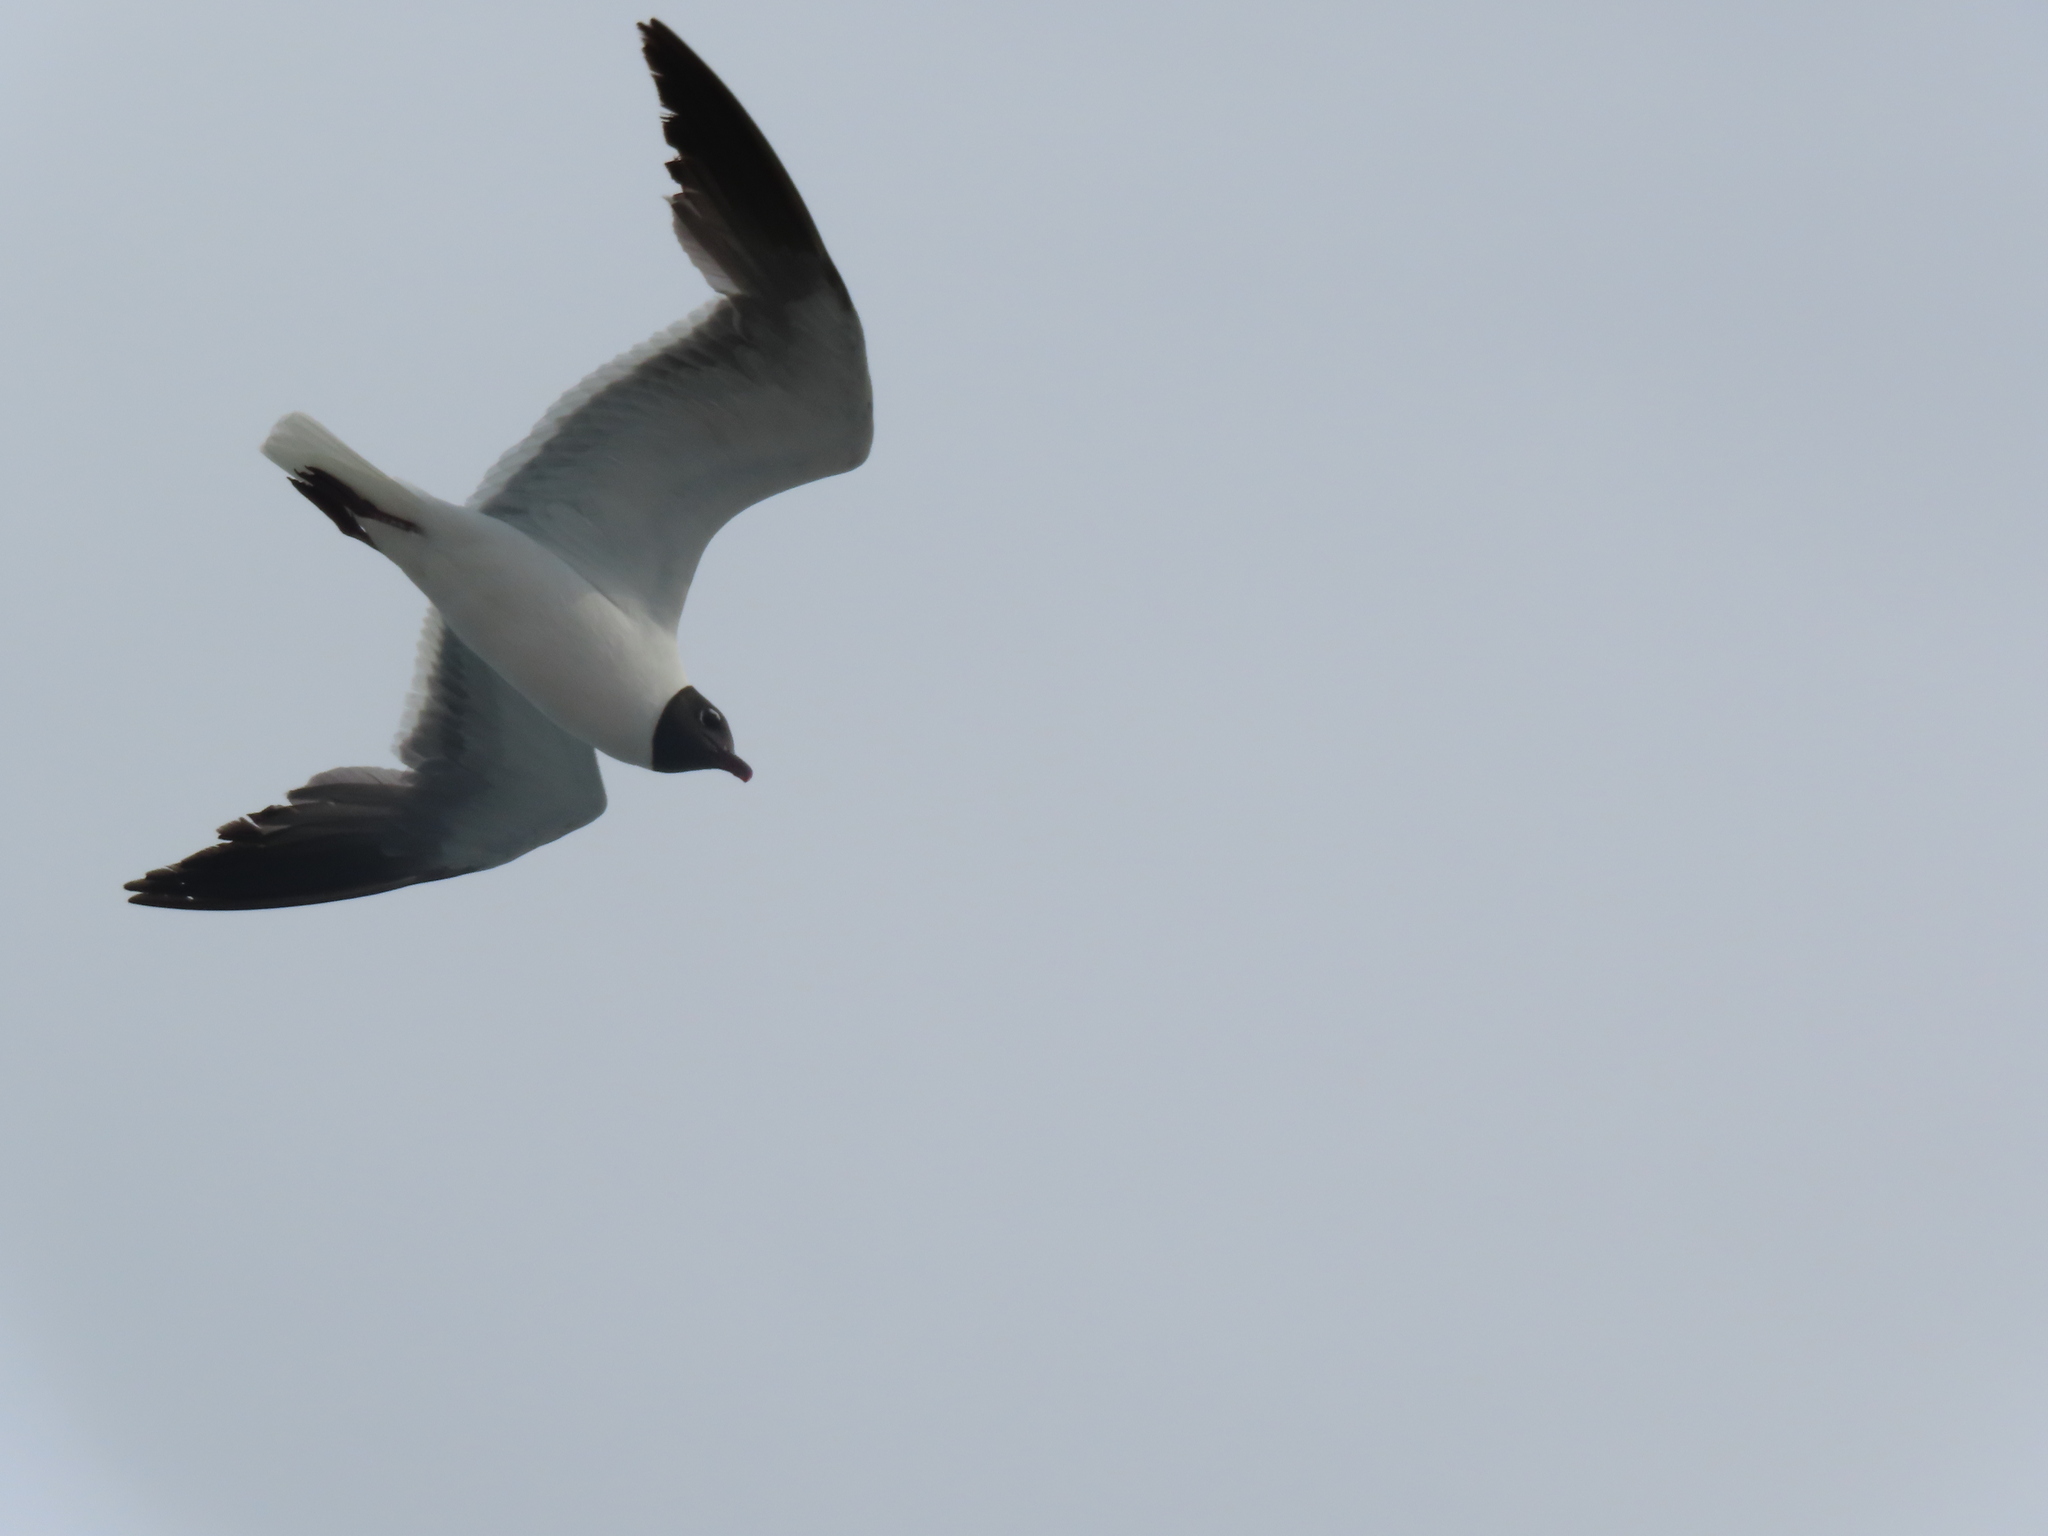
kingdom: Animalia
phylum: Chordata
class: Aves
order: Charadriiformes
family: Laridae
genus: Leucophaeus
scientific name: Leucophaeus atricilla
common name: Laughing gull
